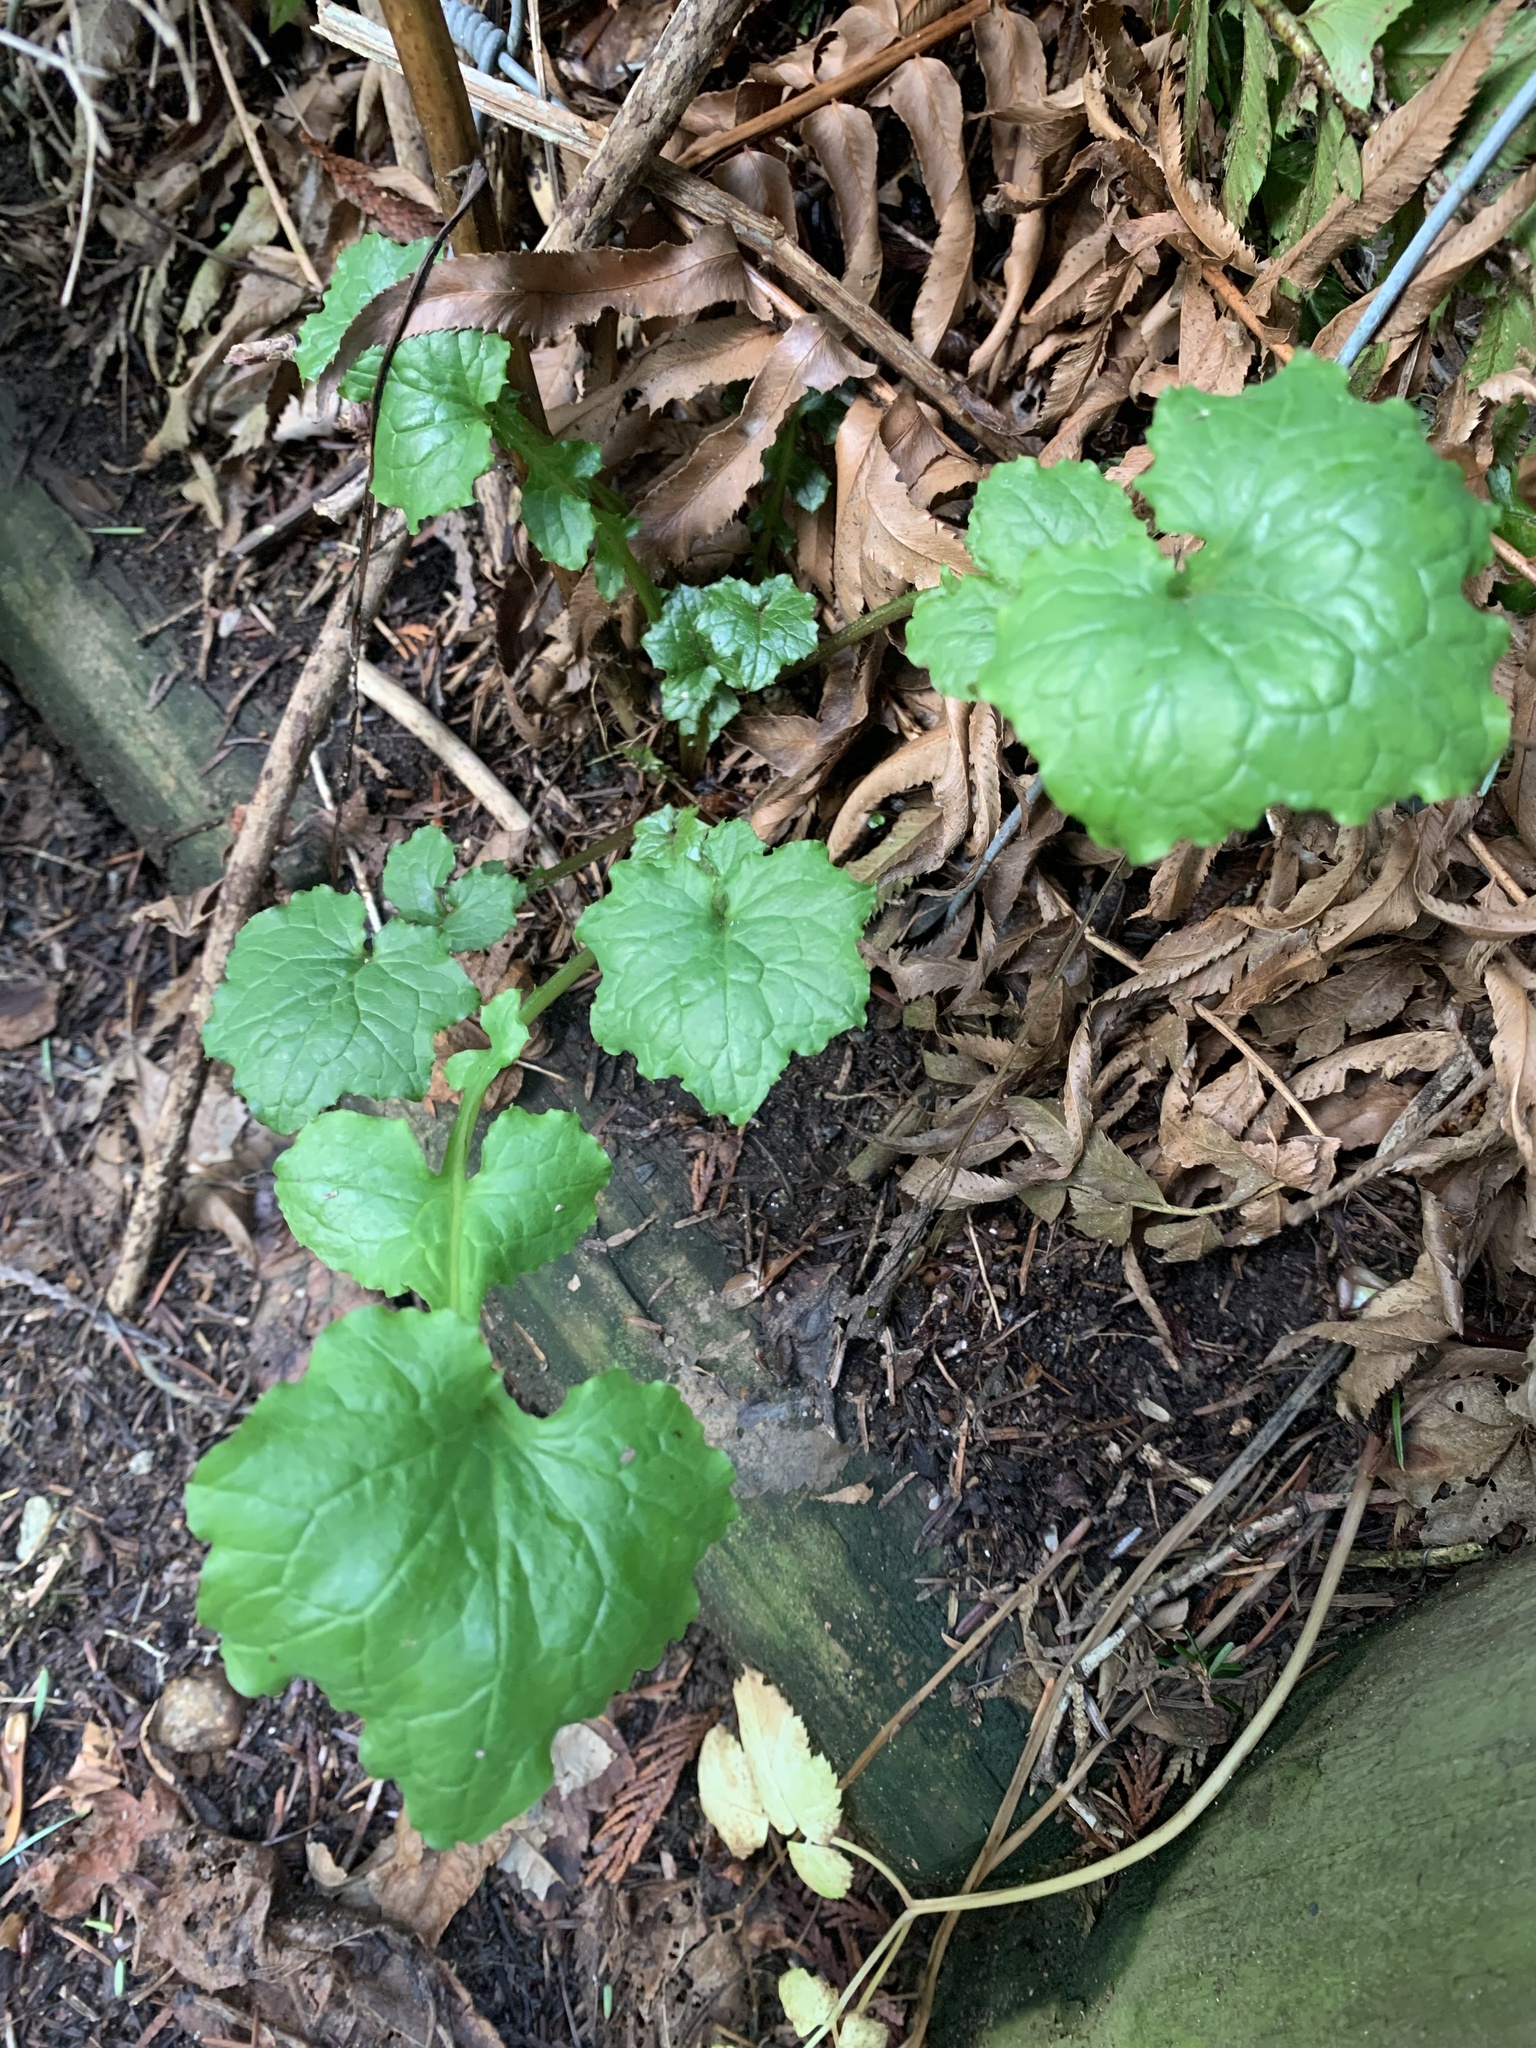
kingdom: Plantae
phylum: Tracheophyta
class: Magnoliopsida
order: Asterales
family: Asteraceae
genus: Mycelis
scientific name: Mycelis muralis
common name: Wall lettuce
